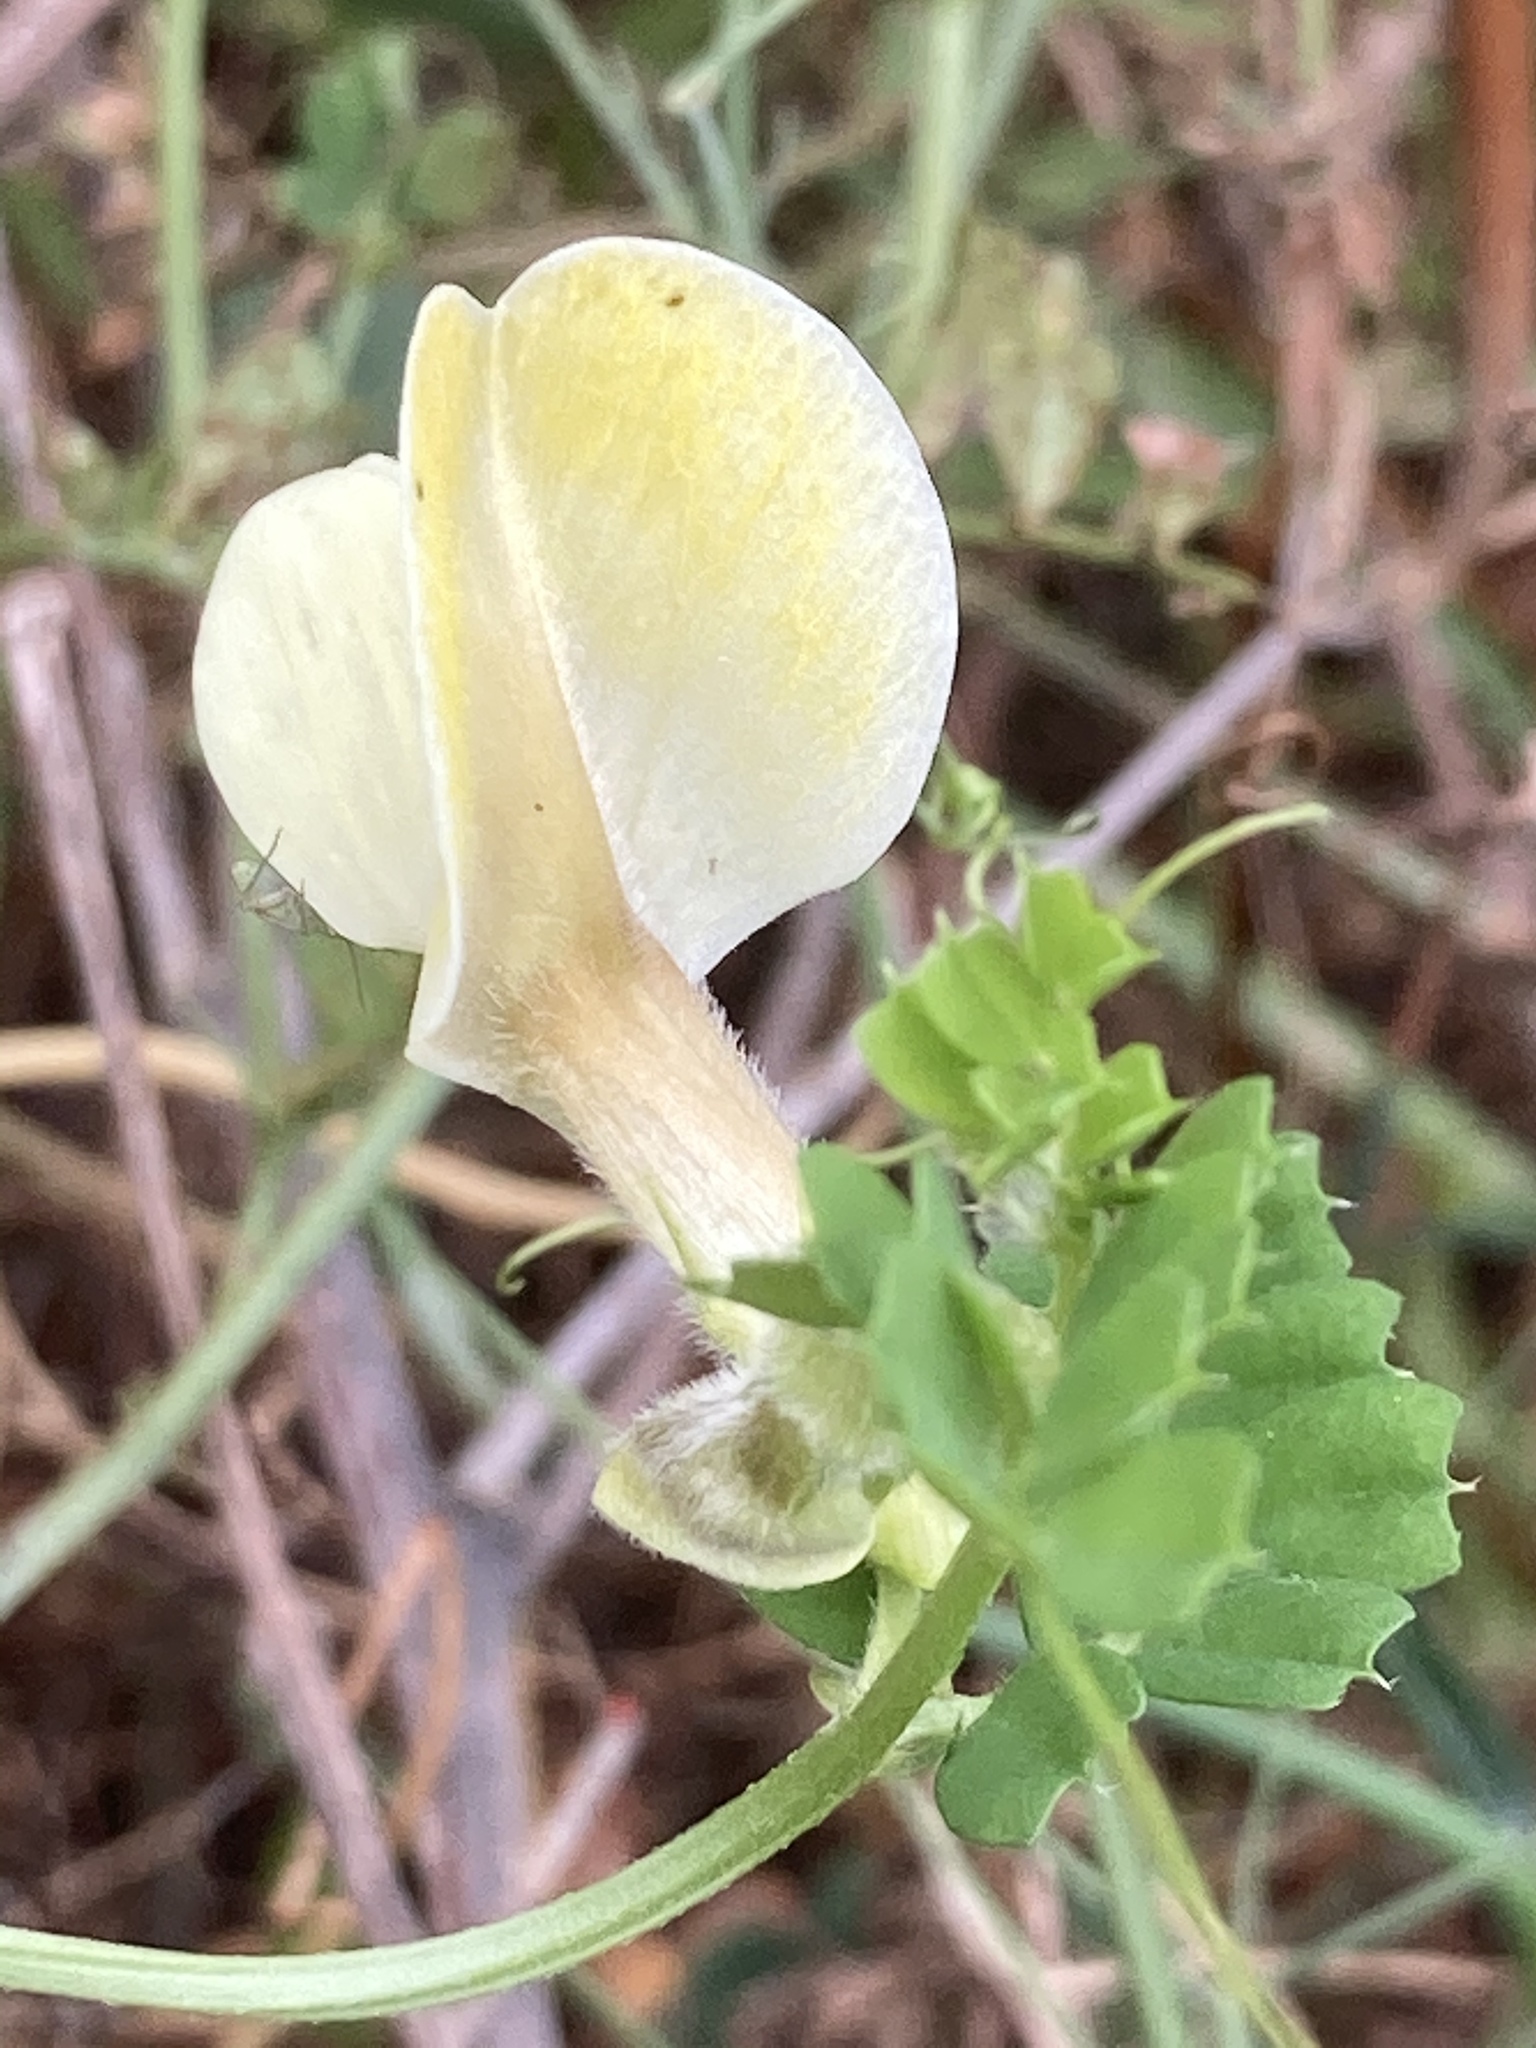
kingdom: Plantae
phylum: Tracheophyta
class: Magnoliopsida
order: Fabales
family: Fabaceae
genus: Vicia
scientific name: Vicia hybrida
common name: Hairy yellow vetch
